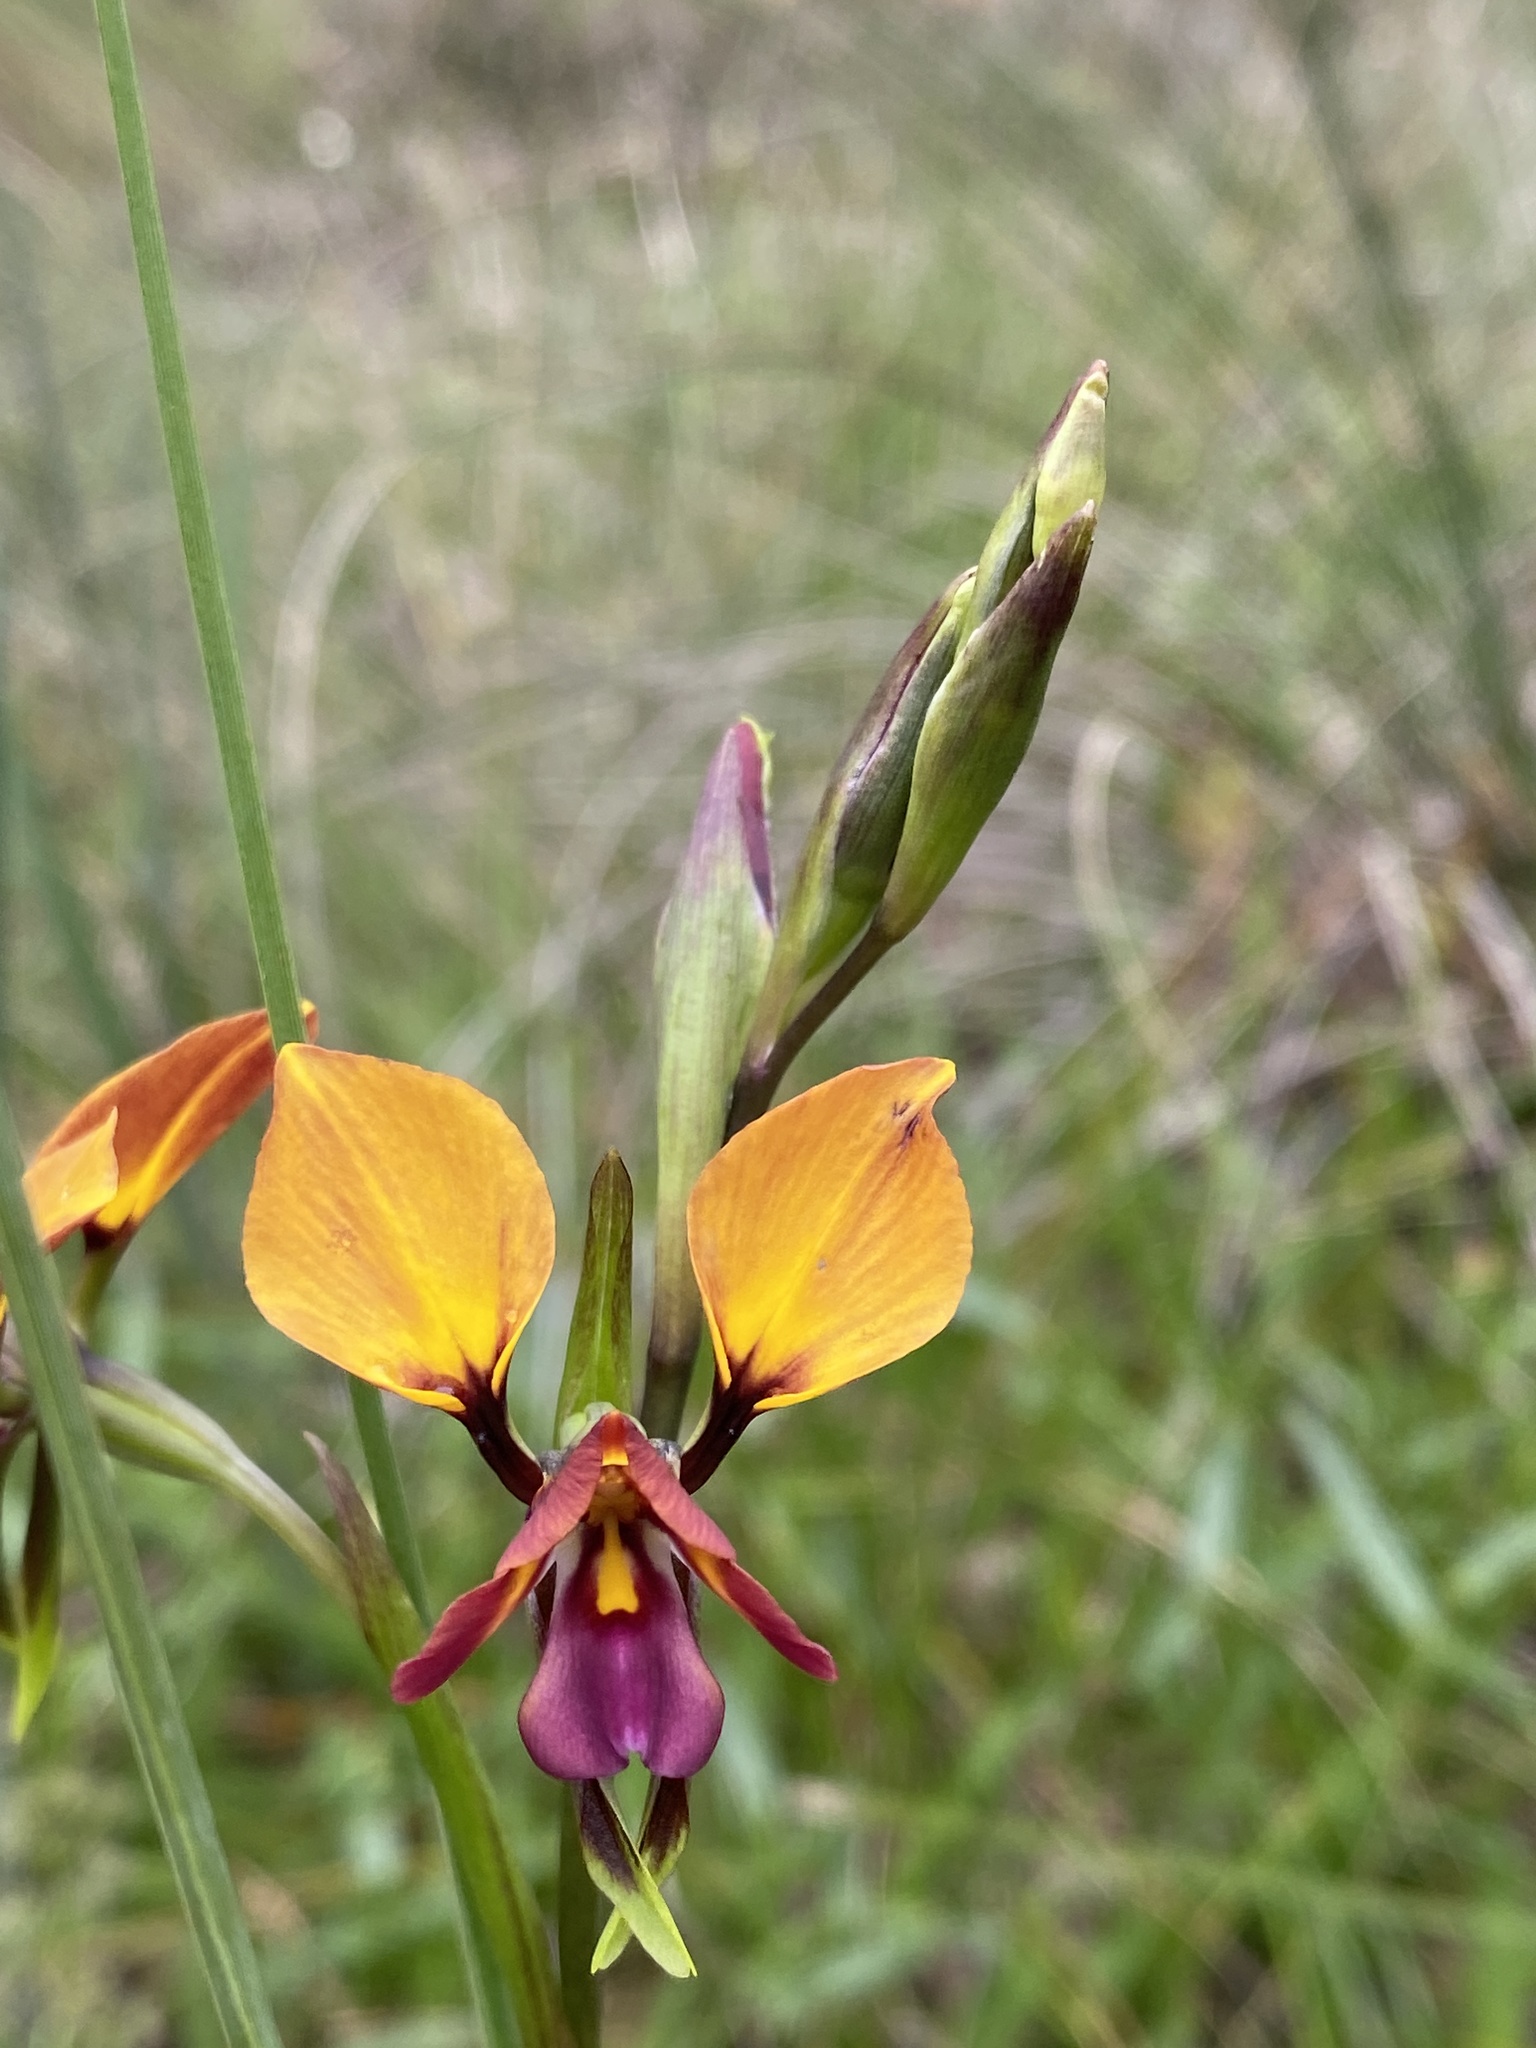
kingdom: Plantae
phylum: Tracheophyta
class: Liliopsida
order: Asparagales
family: Orchidaceae
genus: Diuris
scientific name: Diuris magnifica
